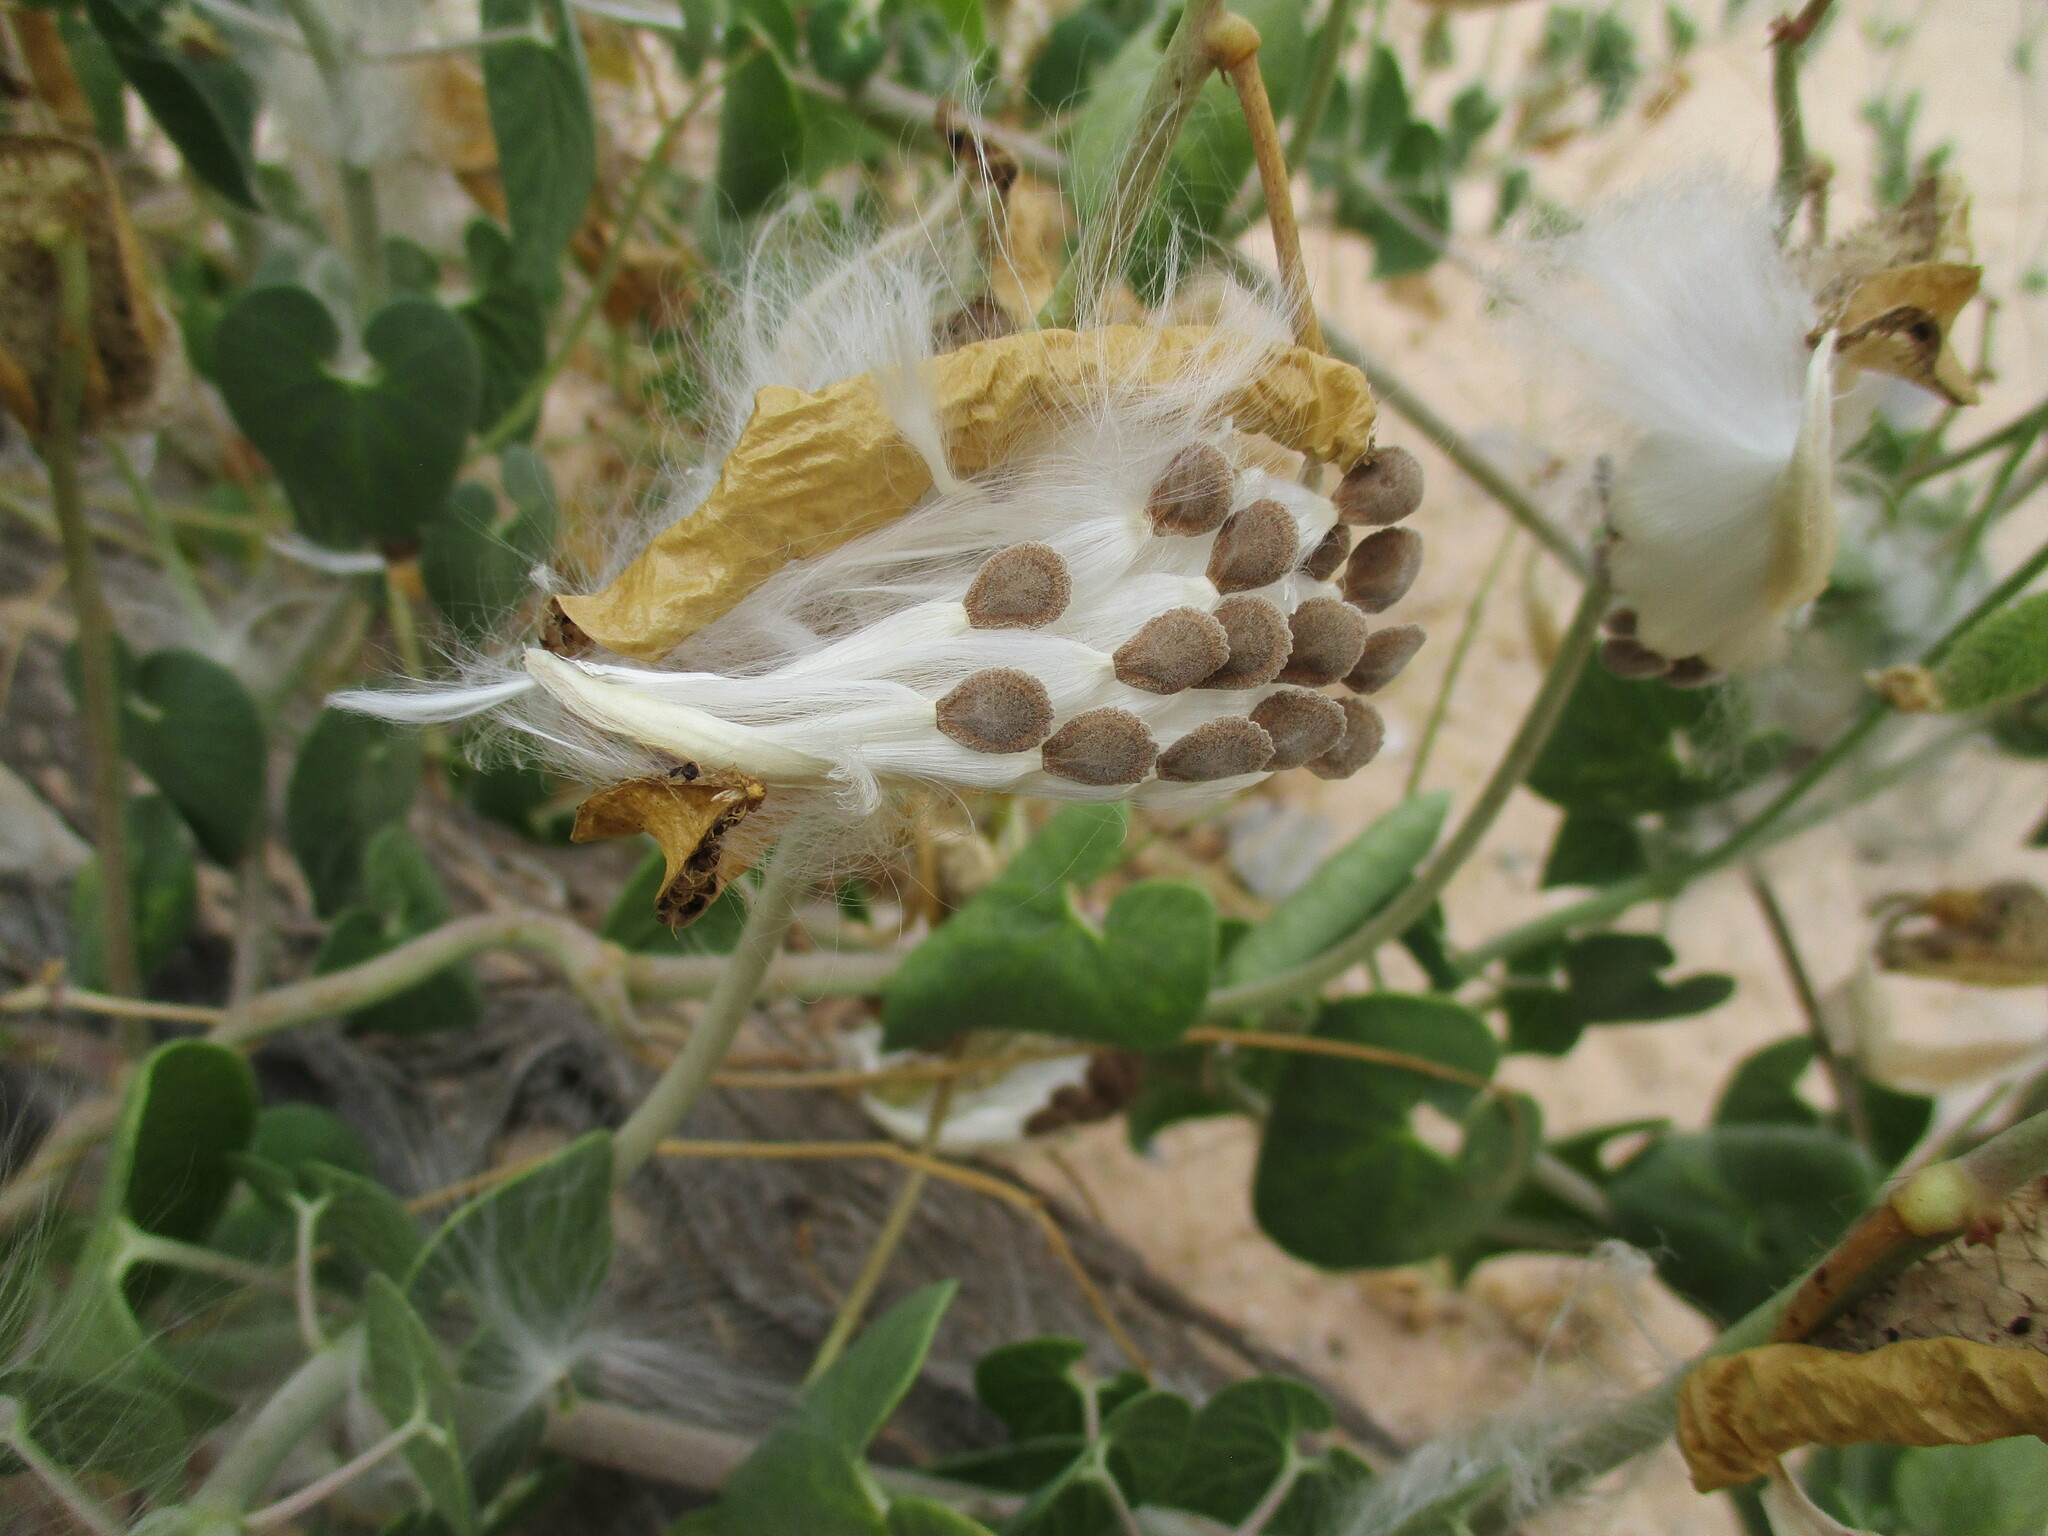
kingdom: Plantae
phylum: Tracheophyta
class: Magnoliopsida
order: Gentianales
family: Apocynaceae
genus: Pergularia
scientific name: Pergularia daemia
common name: Trellis-vine
